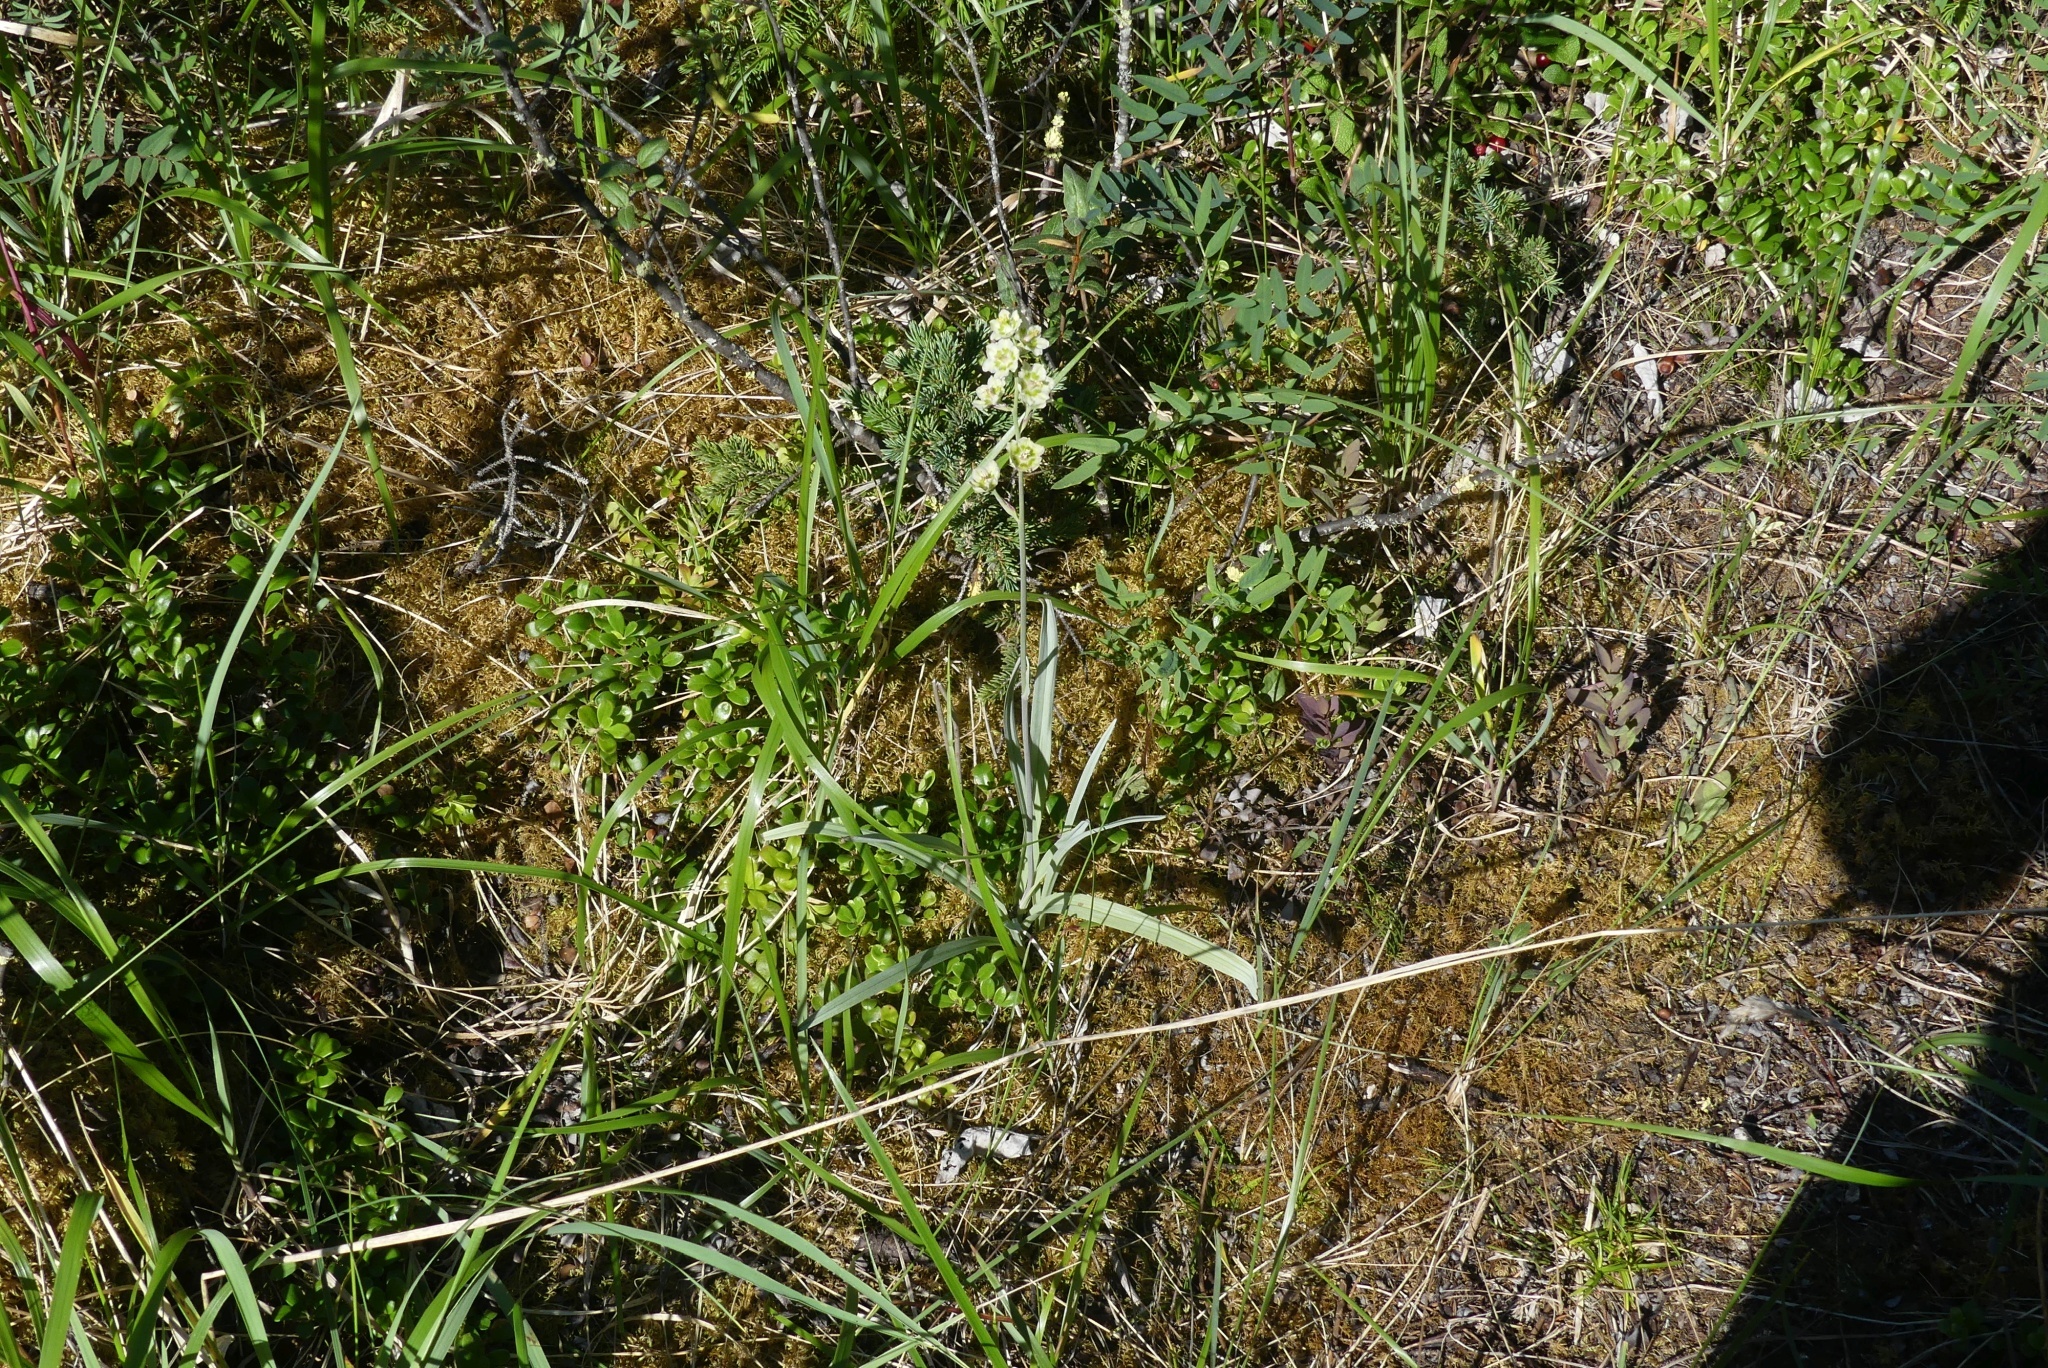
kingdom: Plantae
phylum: Tracheophyta
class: Liliopsida
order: Liliales
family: Melanthiaceae
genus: Anticlea
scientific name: Anticlea elegans
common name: Mountain death camas
